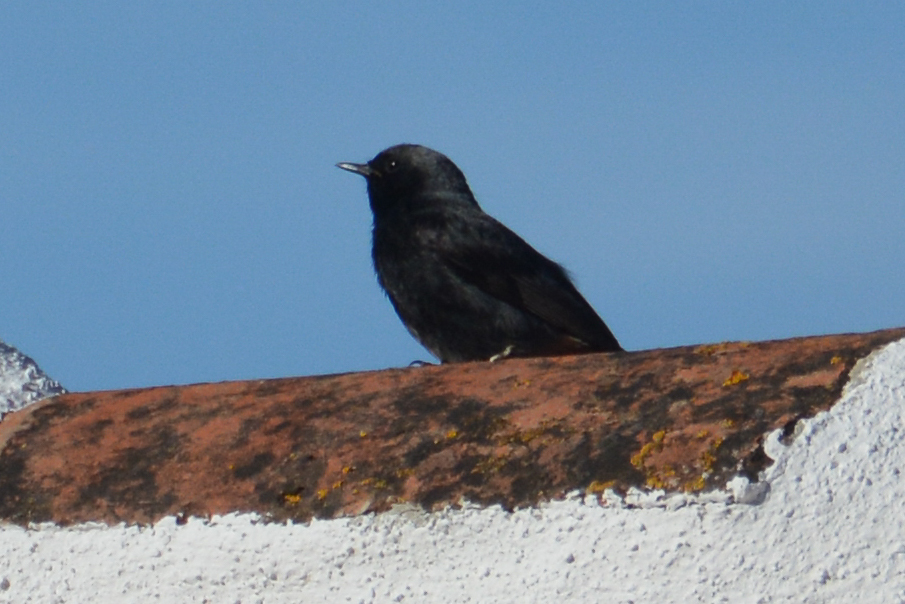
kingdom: Animalia
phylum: Chordata
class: Aves
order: Passeriformes
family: Muscicapidae
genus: Phoenicurus
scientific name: Phoenicurus ochruros
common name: Black redstart
